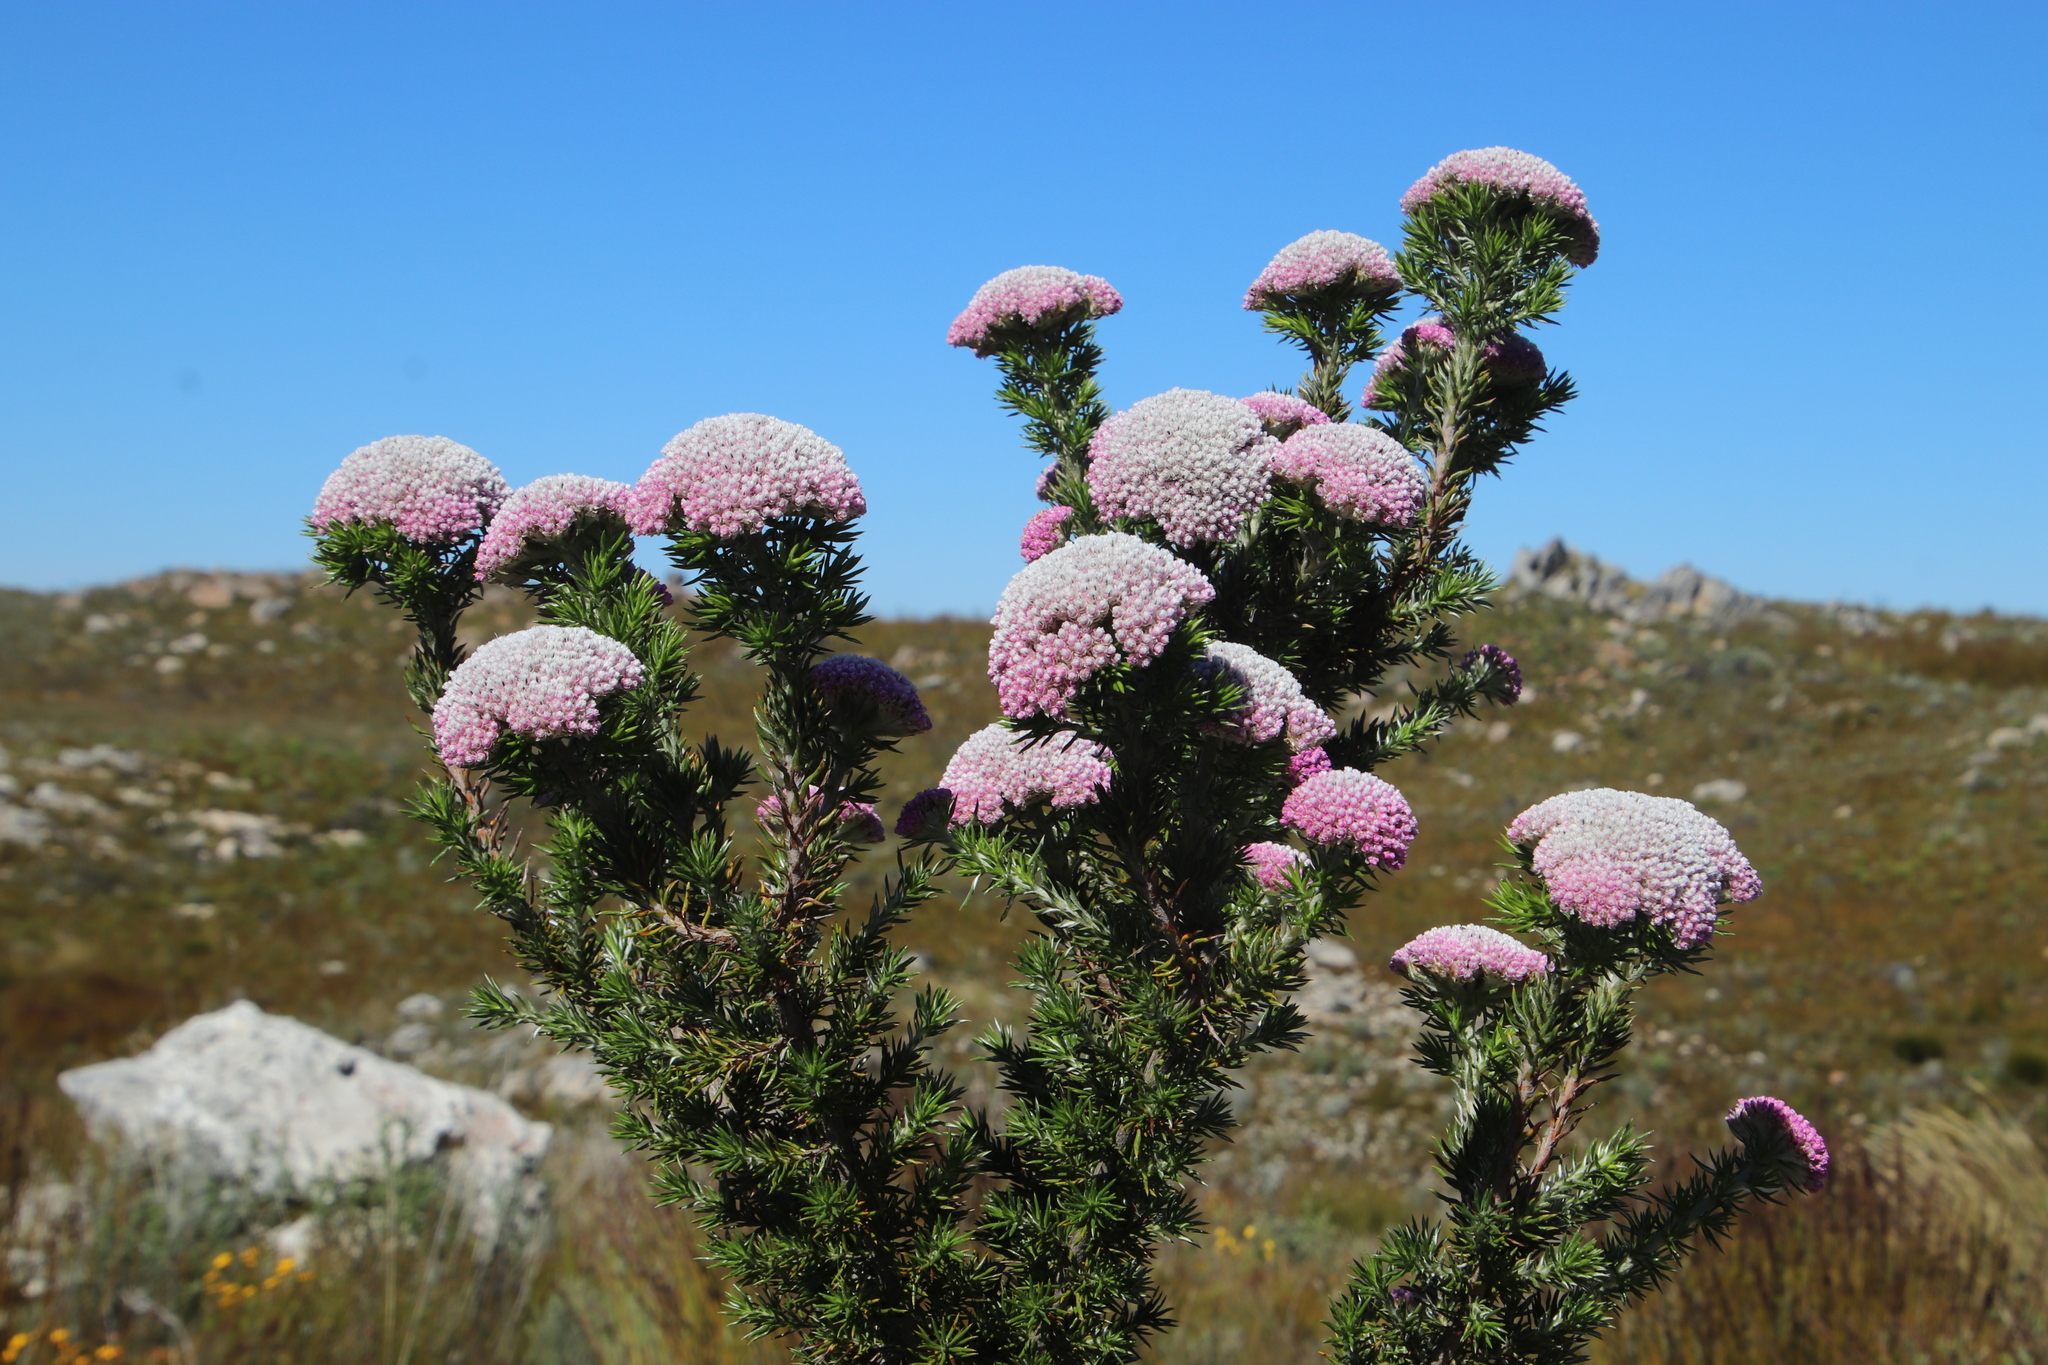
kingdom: Plantae
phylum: Tracheophyta
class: Magnoliopsida
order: Asterales
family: Asteraceae
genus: Metalasia
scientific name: Metalasia muraltiifolia
